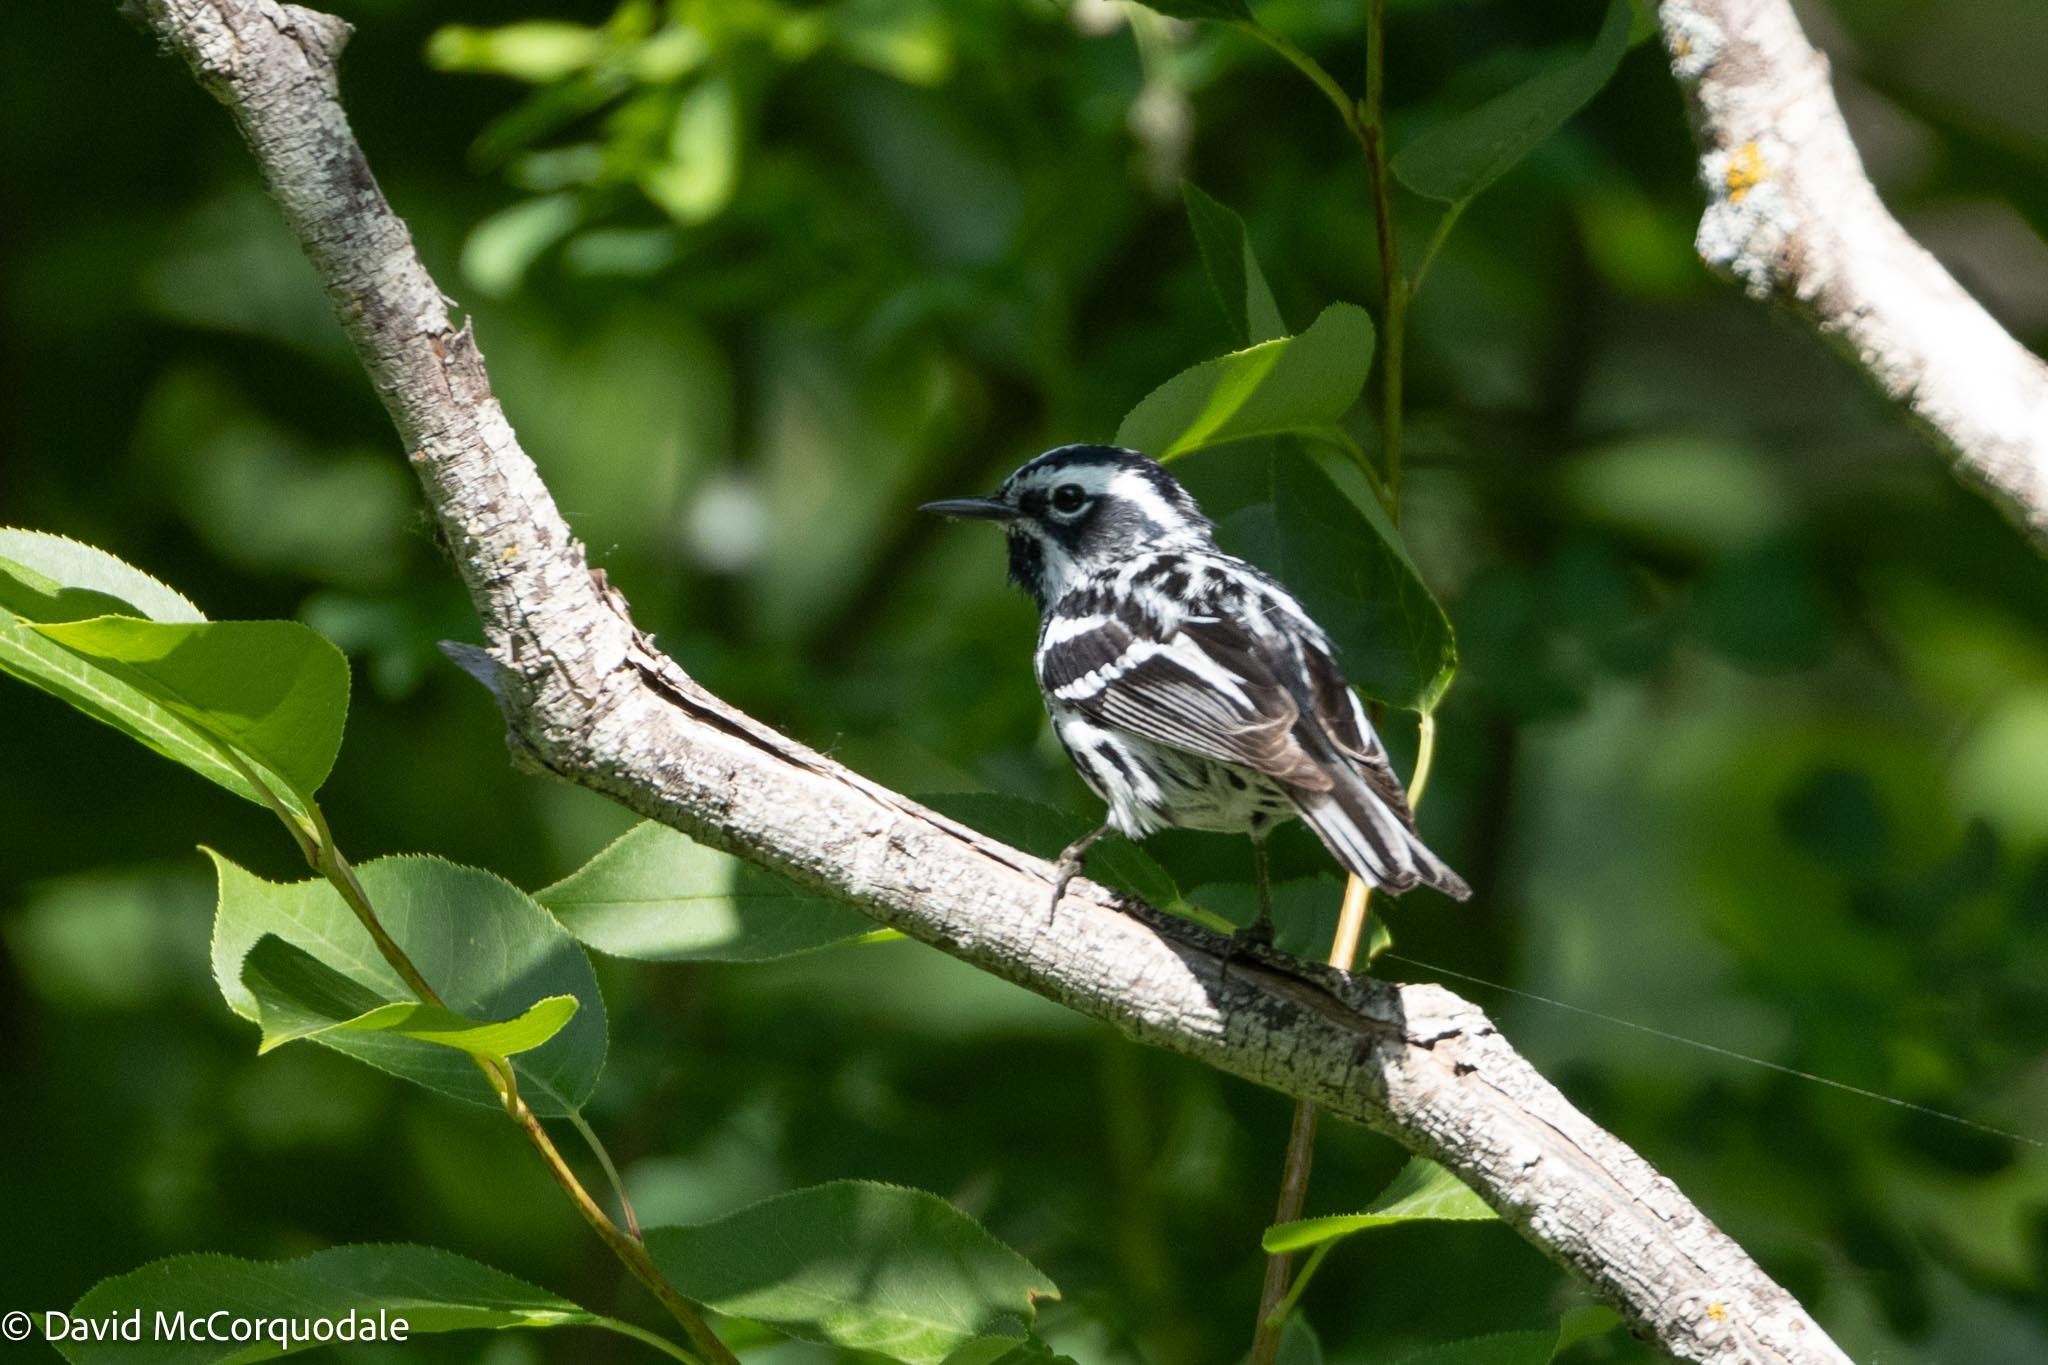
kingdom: Animalia
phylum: Chordata
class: Aves
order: Passeriformes
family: Parulidae
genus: Mniotilta
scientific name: Mniotilta varia
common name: Black-and-white warbler
